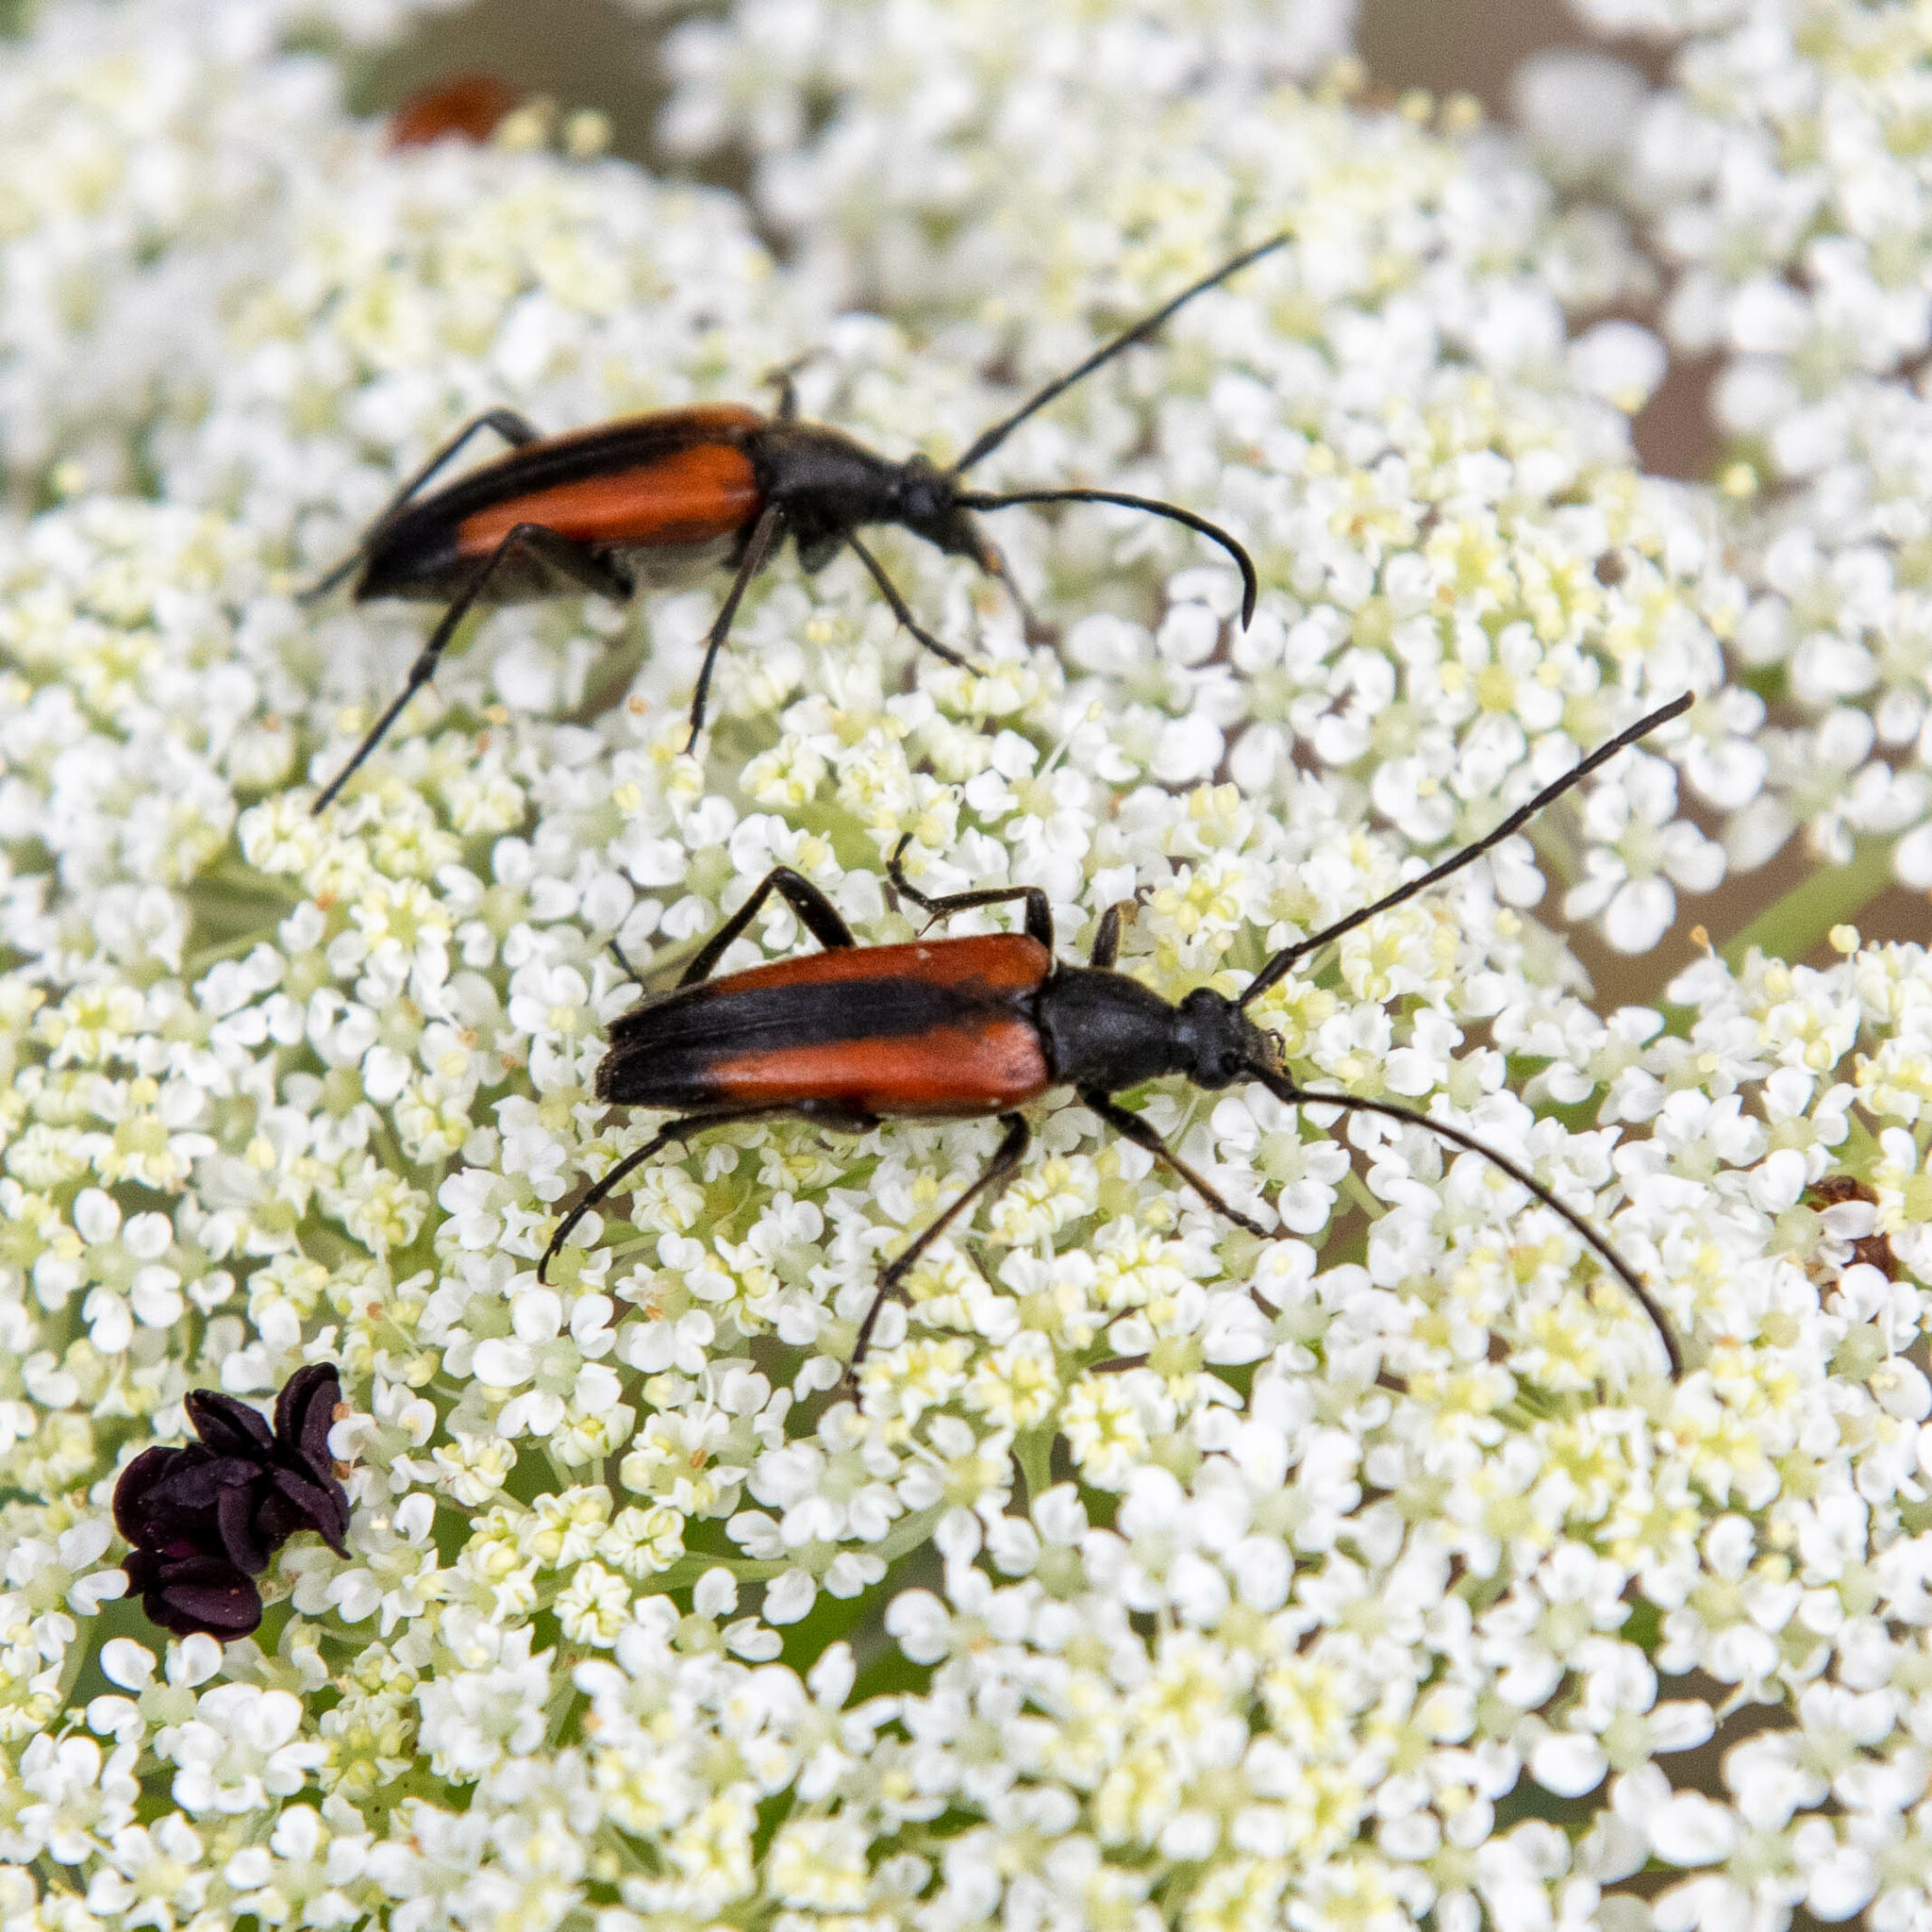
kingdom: Animalia
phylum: Arthropoda
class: Insecta
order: Coleoptera
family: Cerambycidae
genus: Stenurella
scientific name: Stenurella melanura
